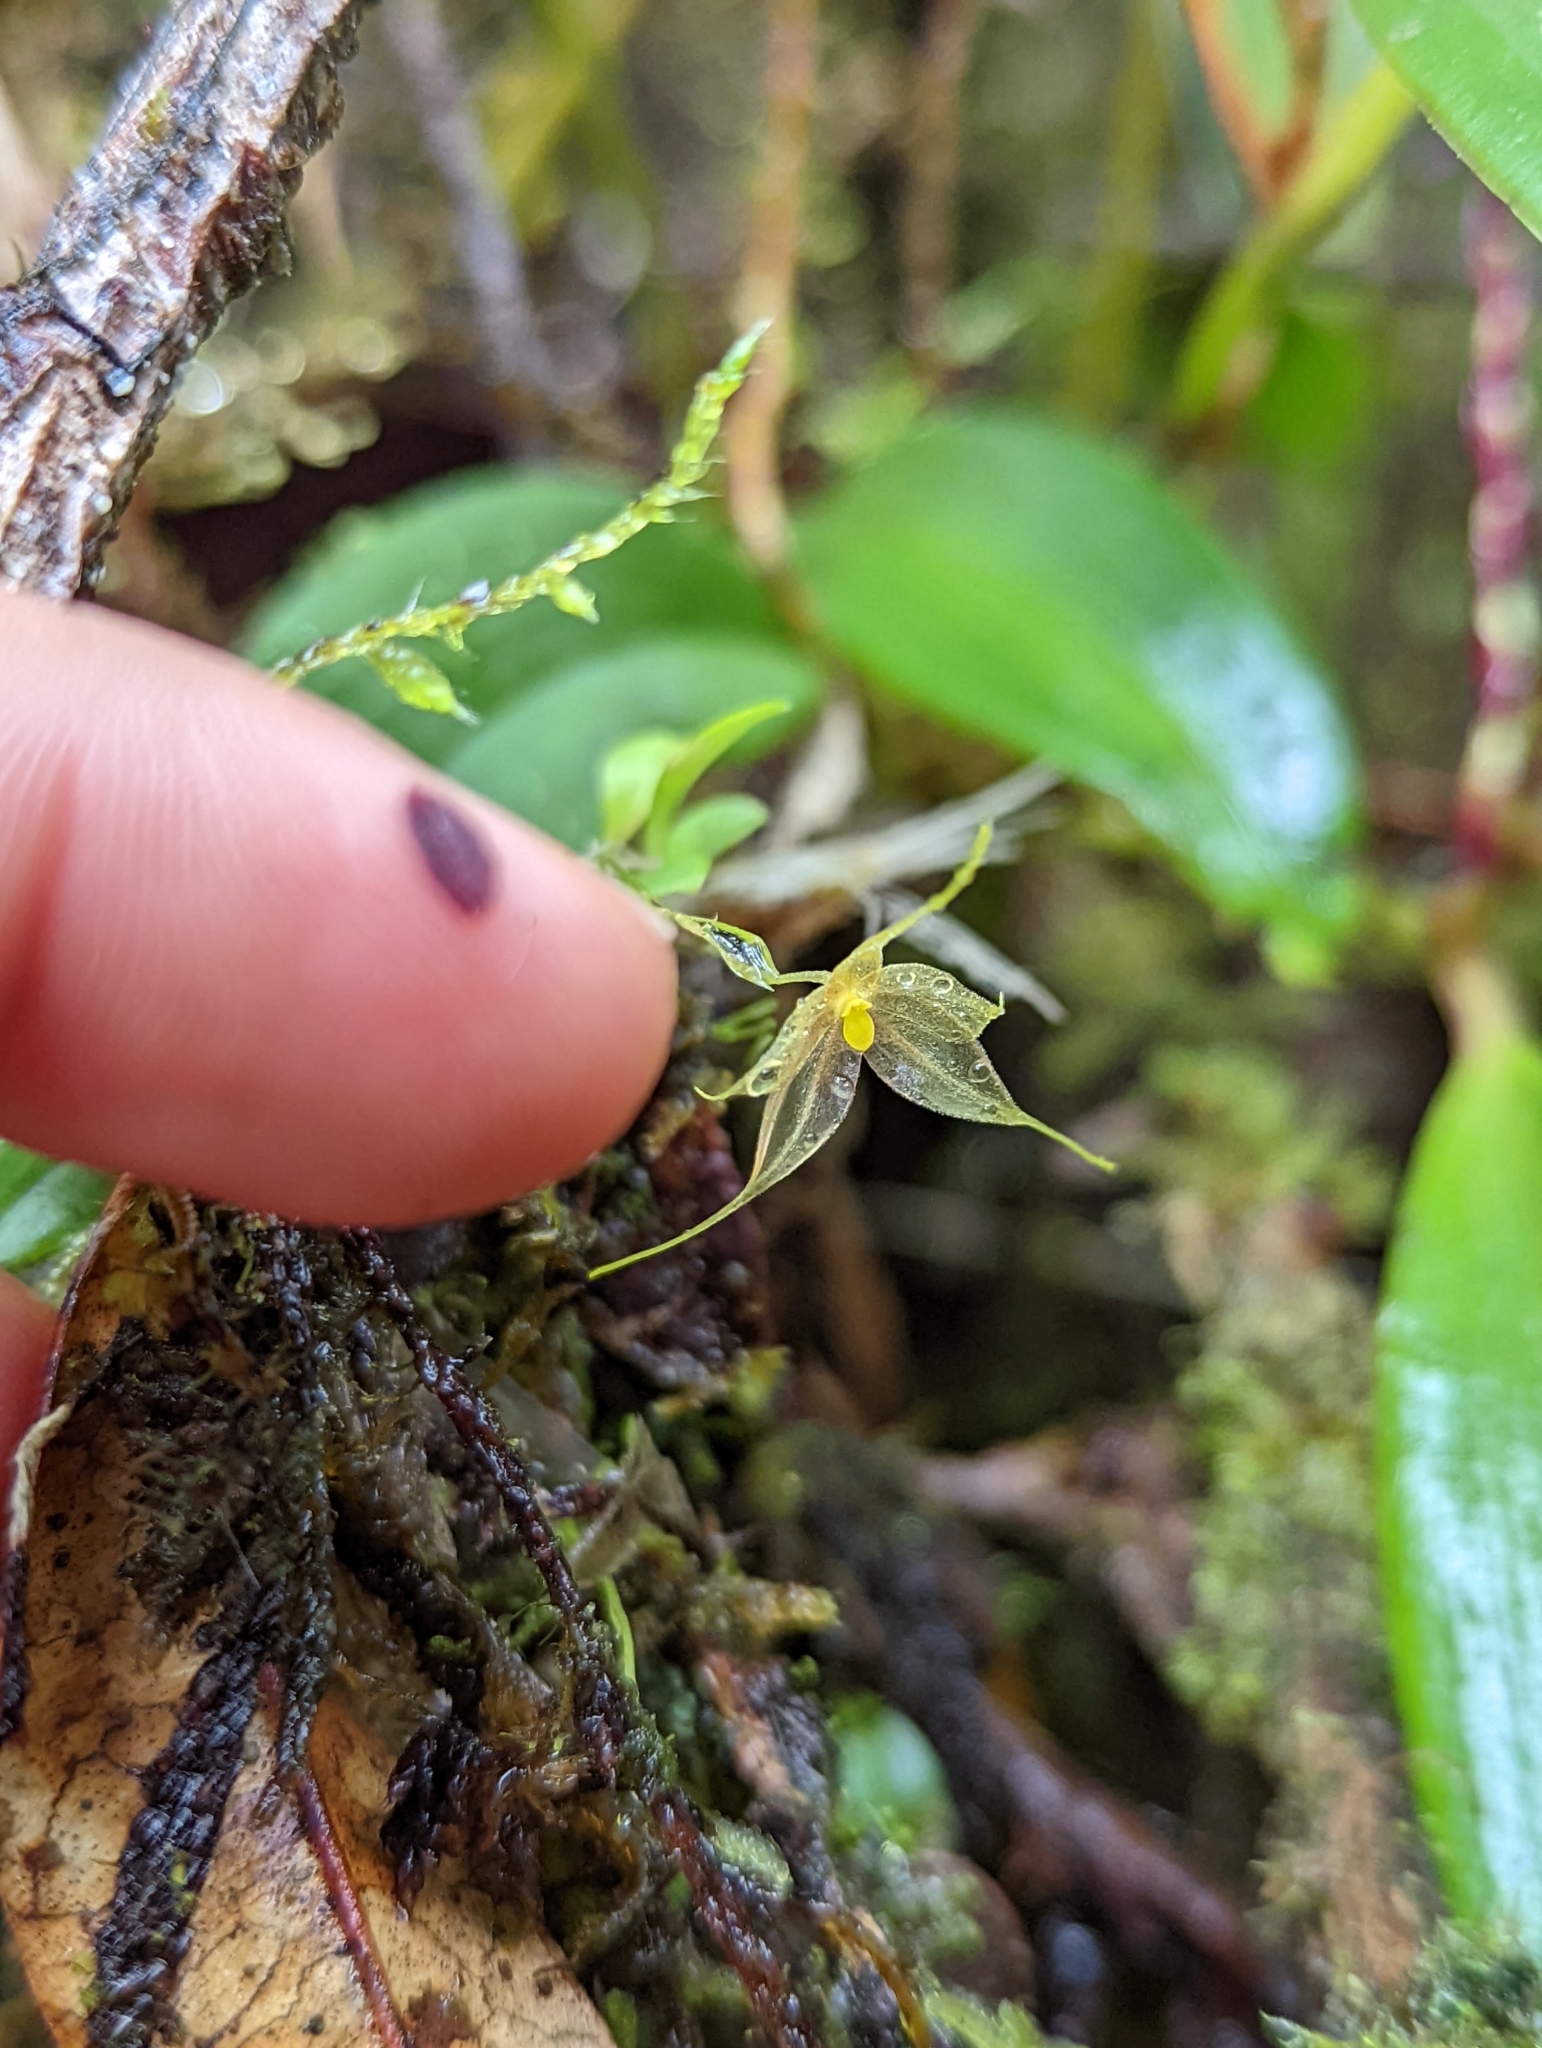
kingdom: Plantae
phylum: Tracheophyta
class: Liliopsida
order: Asparagales
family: Orchidaceae
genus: Platystele
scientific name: Platystele microglossa
